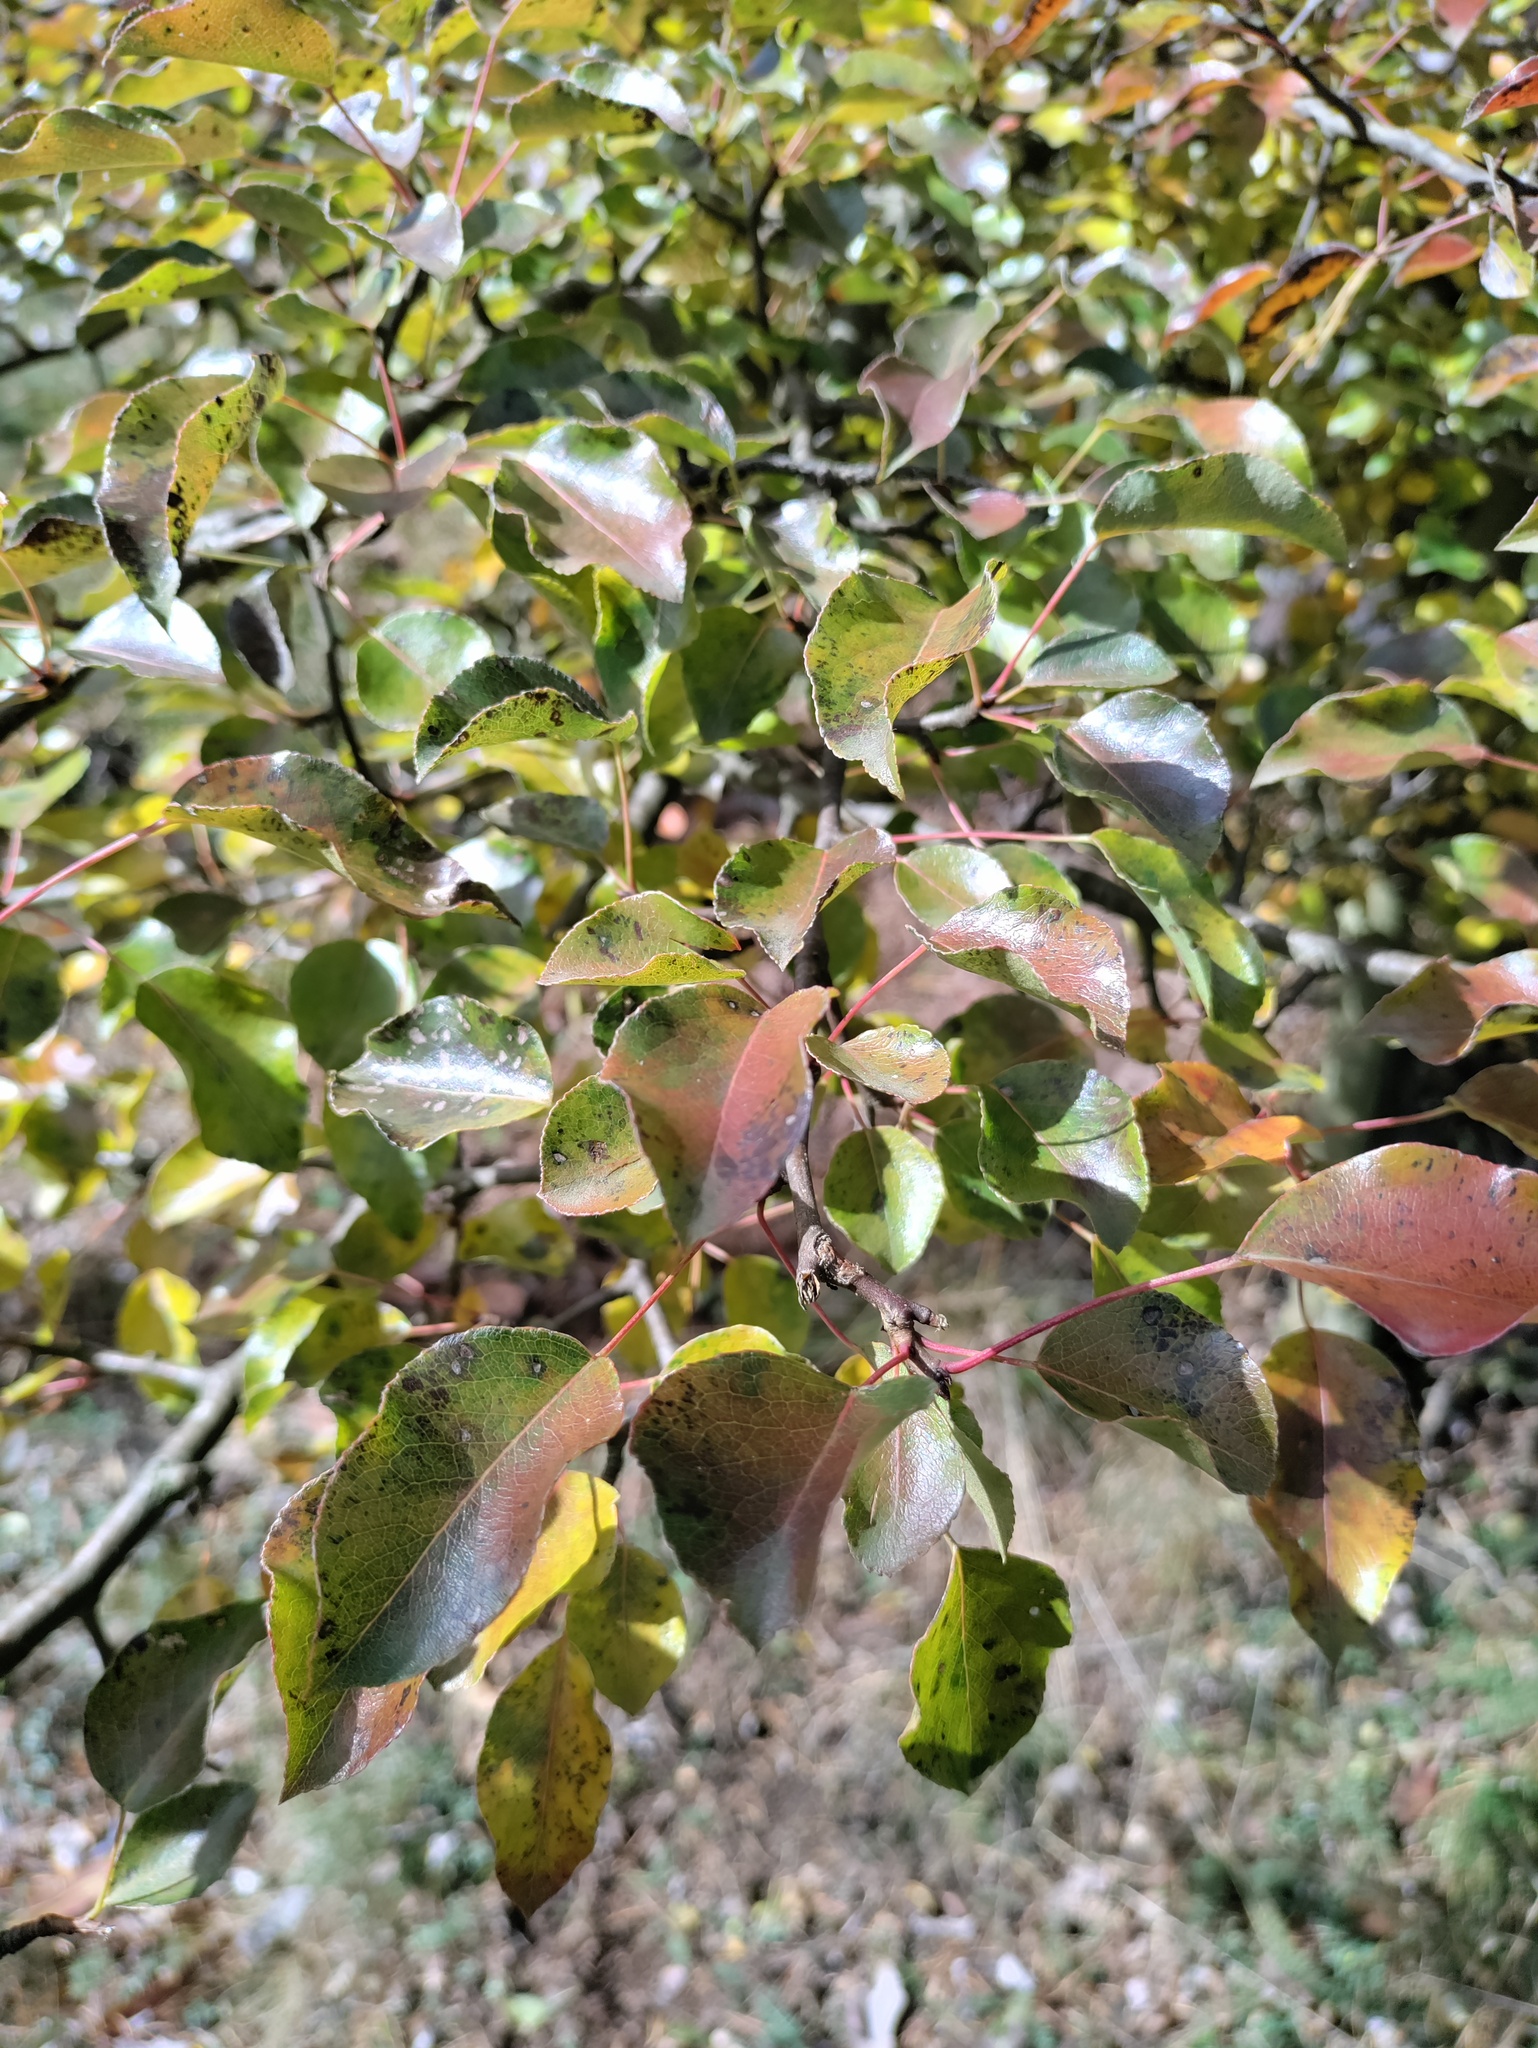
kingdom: Plantae
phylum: Tracheophyta
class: Magnoliopsida
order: Rosales
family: Rosaceae
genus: Pyrus
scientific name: Pyrus
